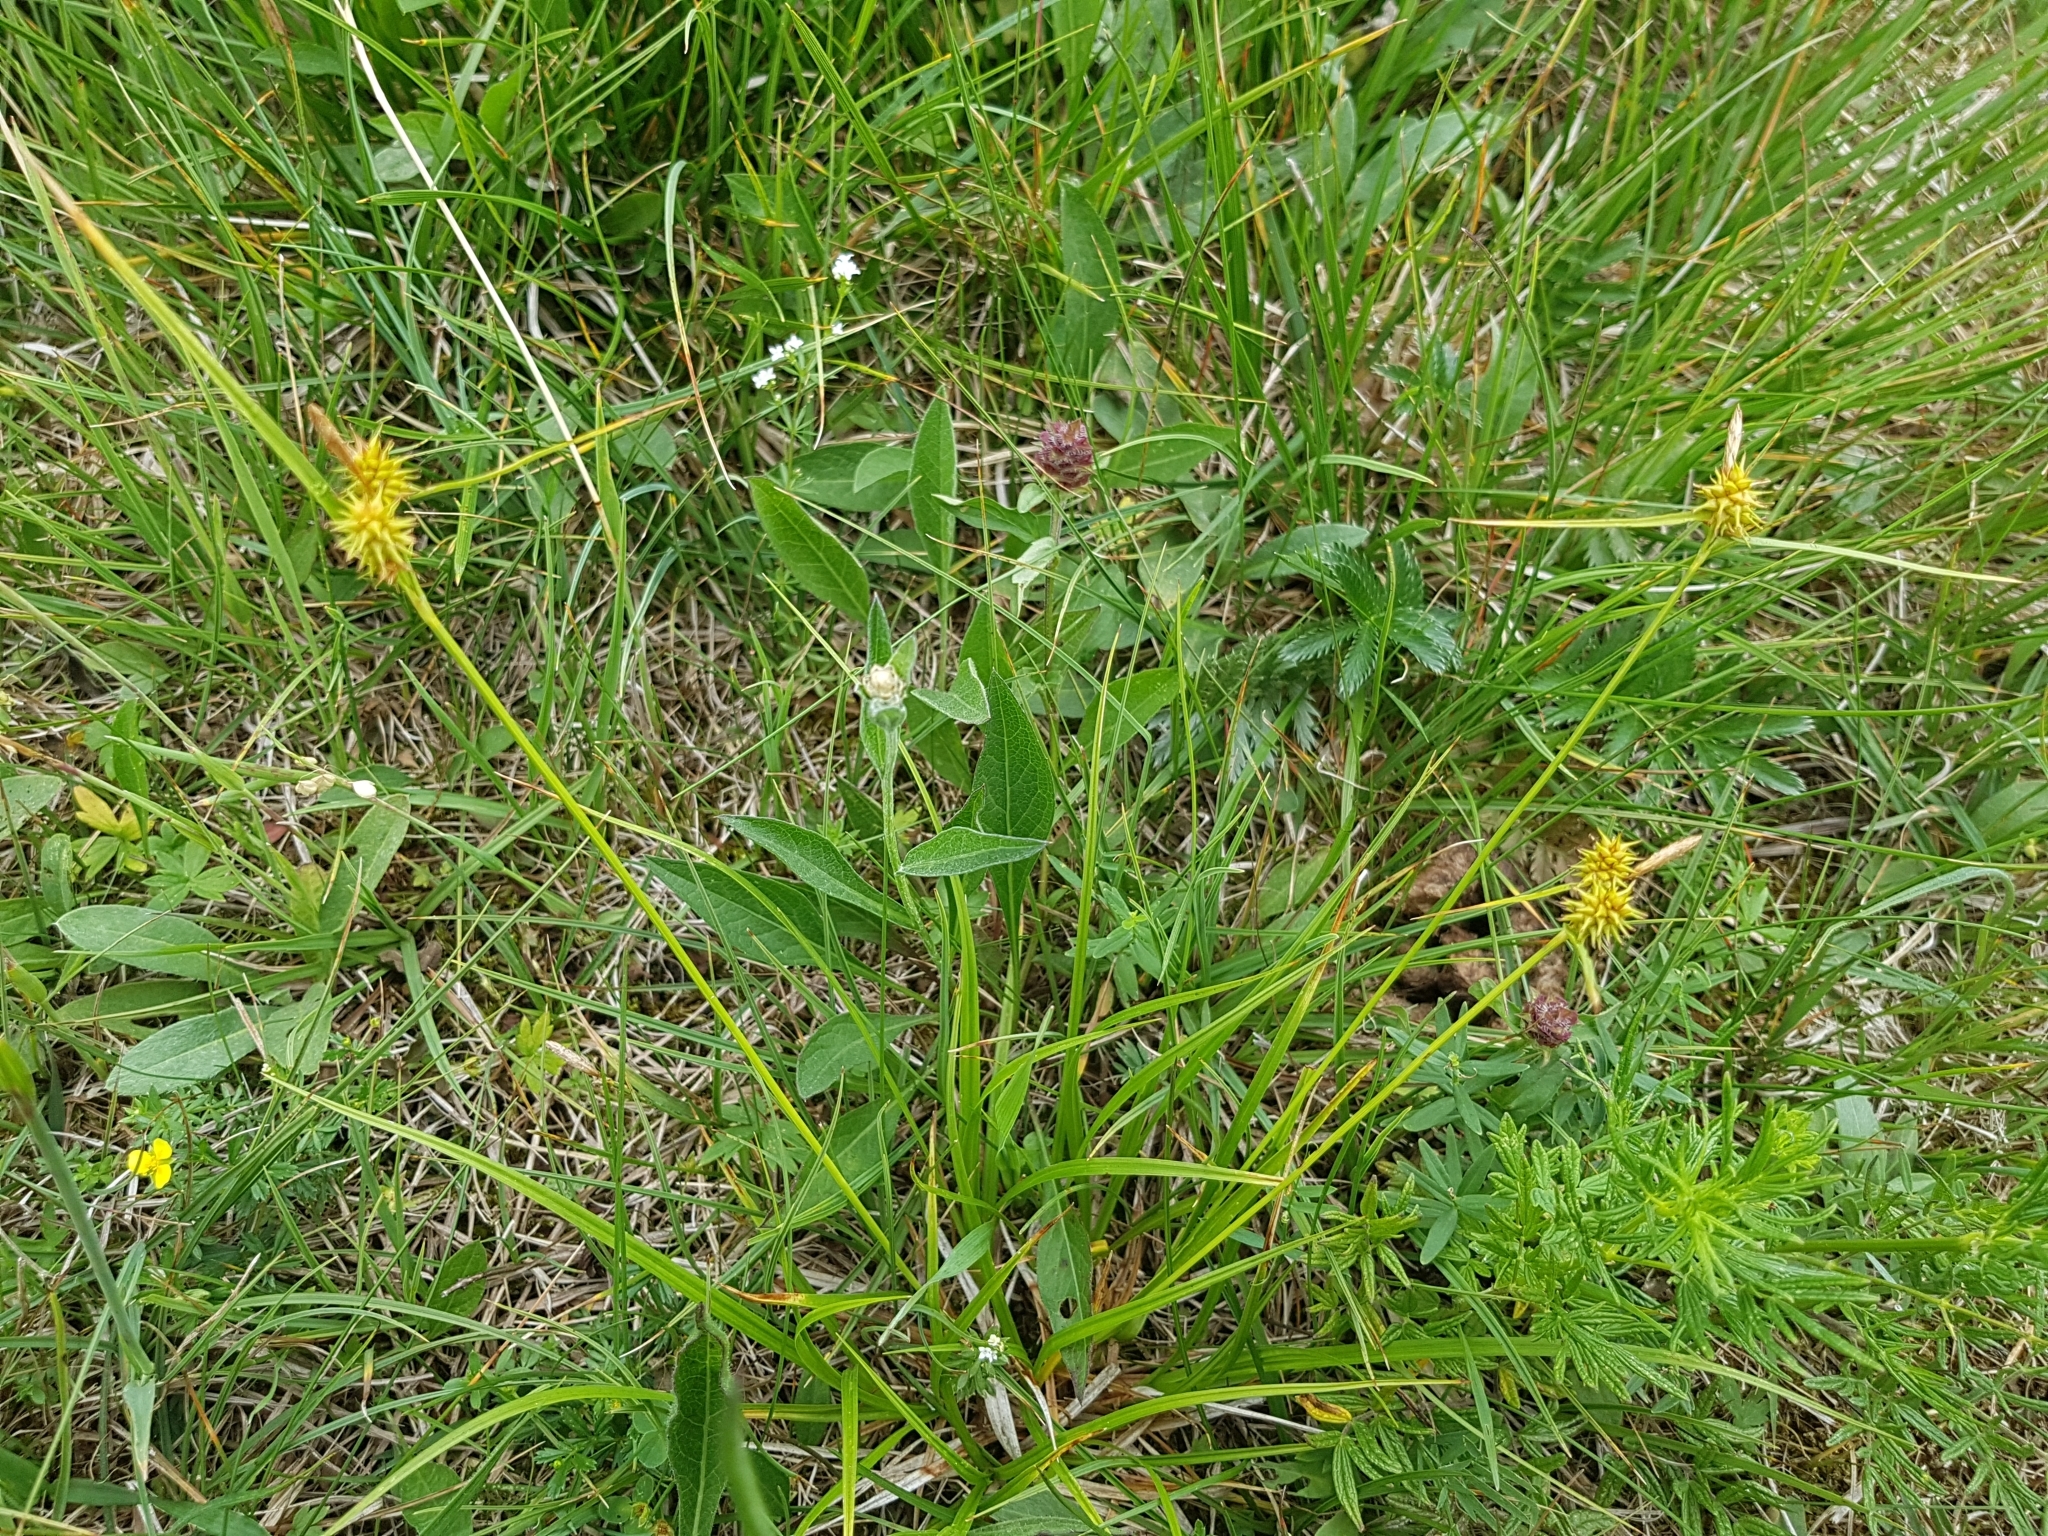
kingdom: Plantae
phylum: Tracheophyta
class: Liliopsida
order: Poales
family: Cyperaceae
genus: Carex
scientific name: Carex flava
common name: Large yellow-sedge
